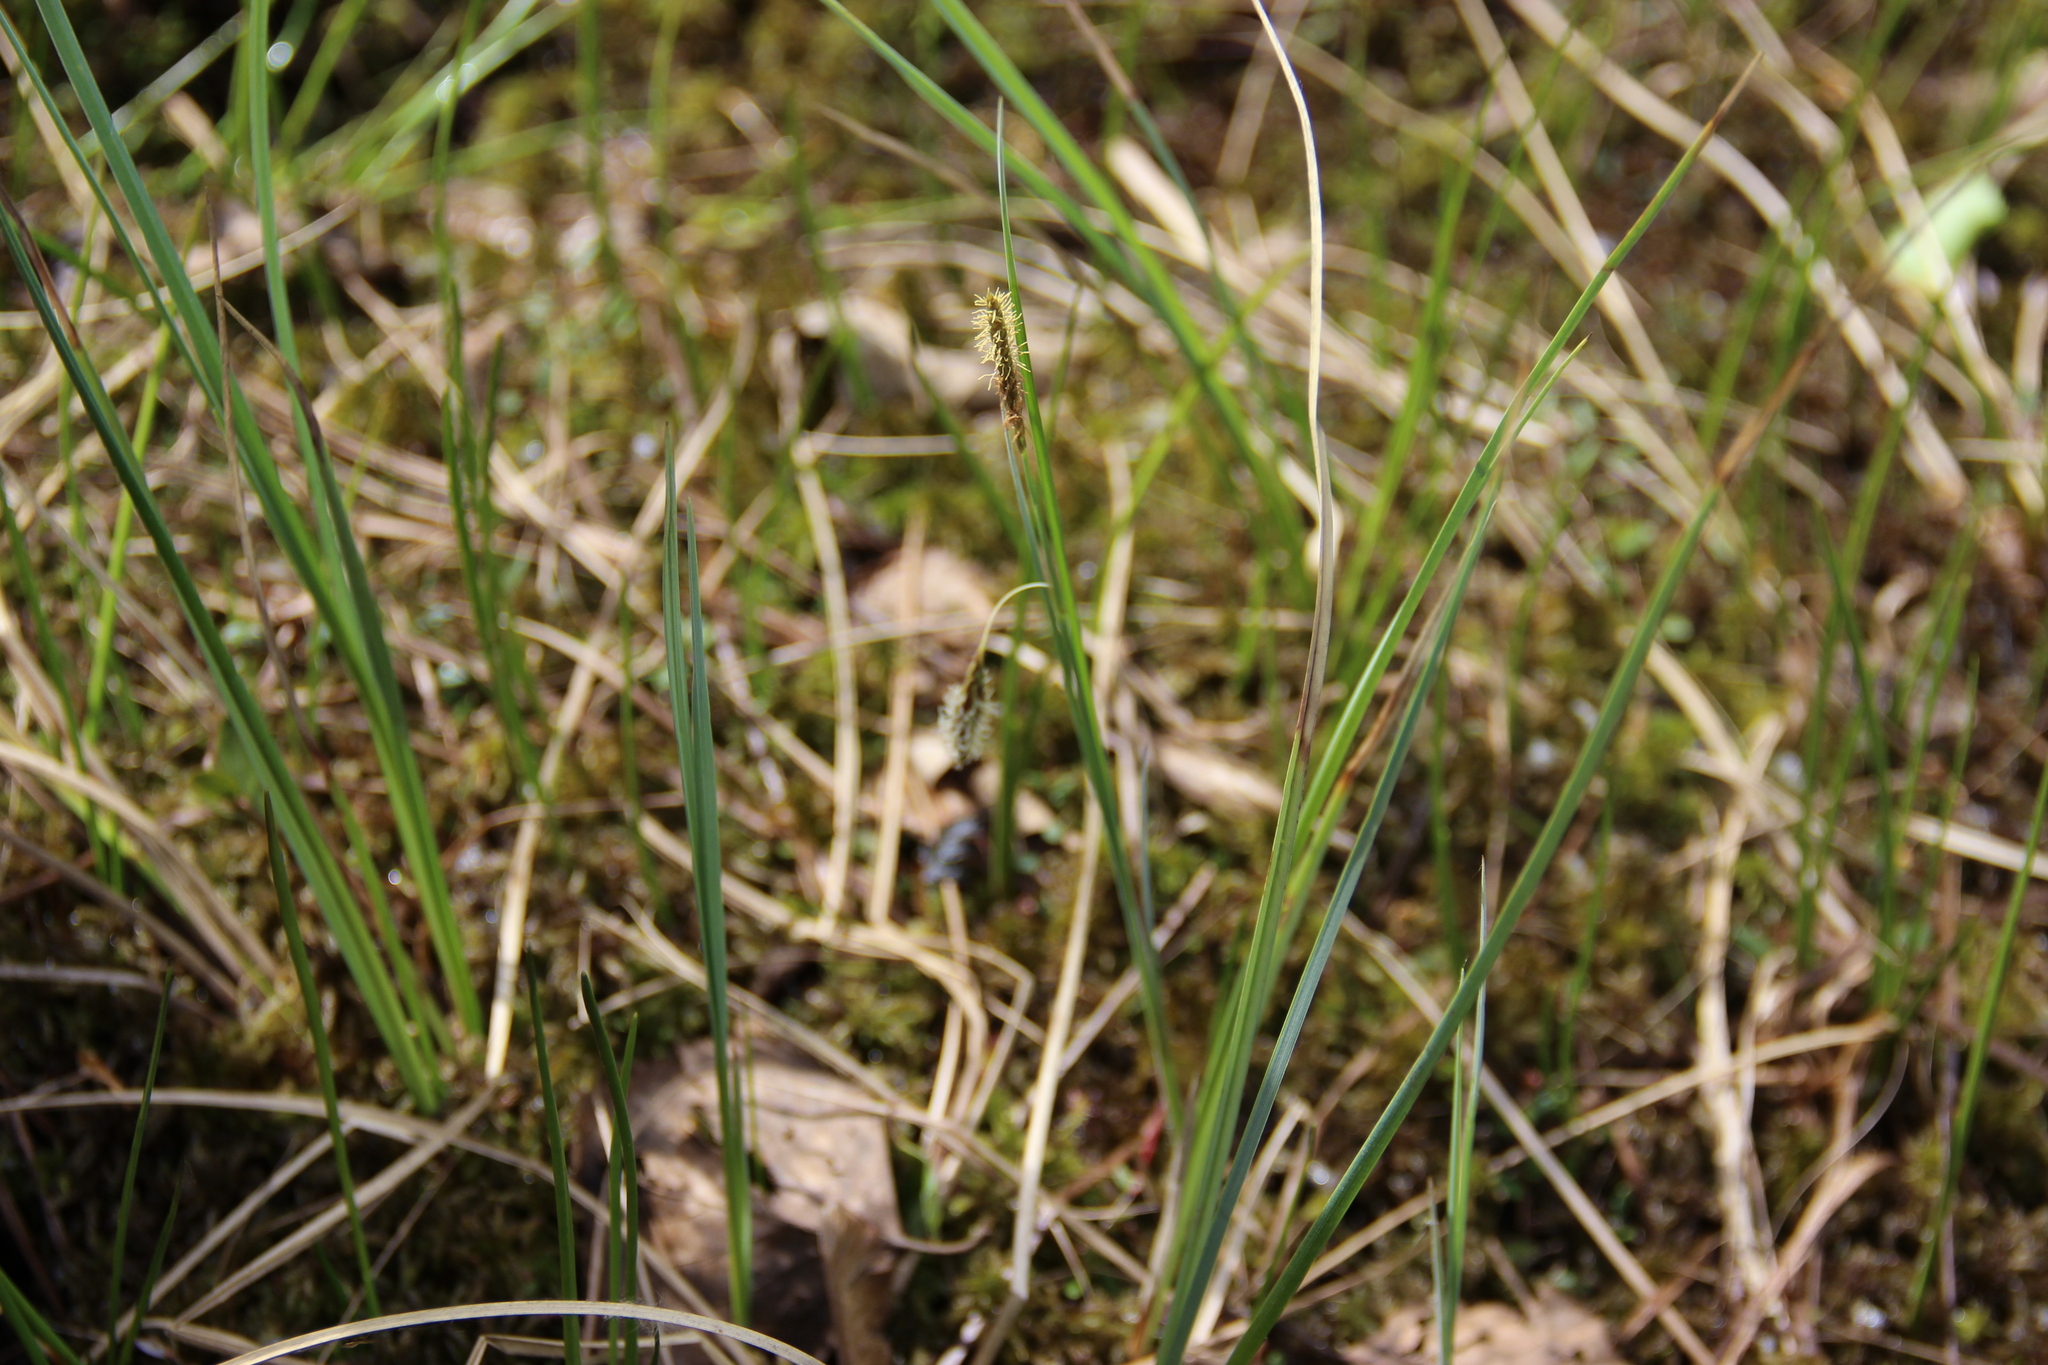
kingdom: Plantae
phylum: Tracheophyta
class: Liliopsida
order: Poales
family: Cyperaceae
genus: Carex
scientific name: Carex limosa
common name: Bog sedge
